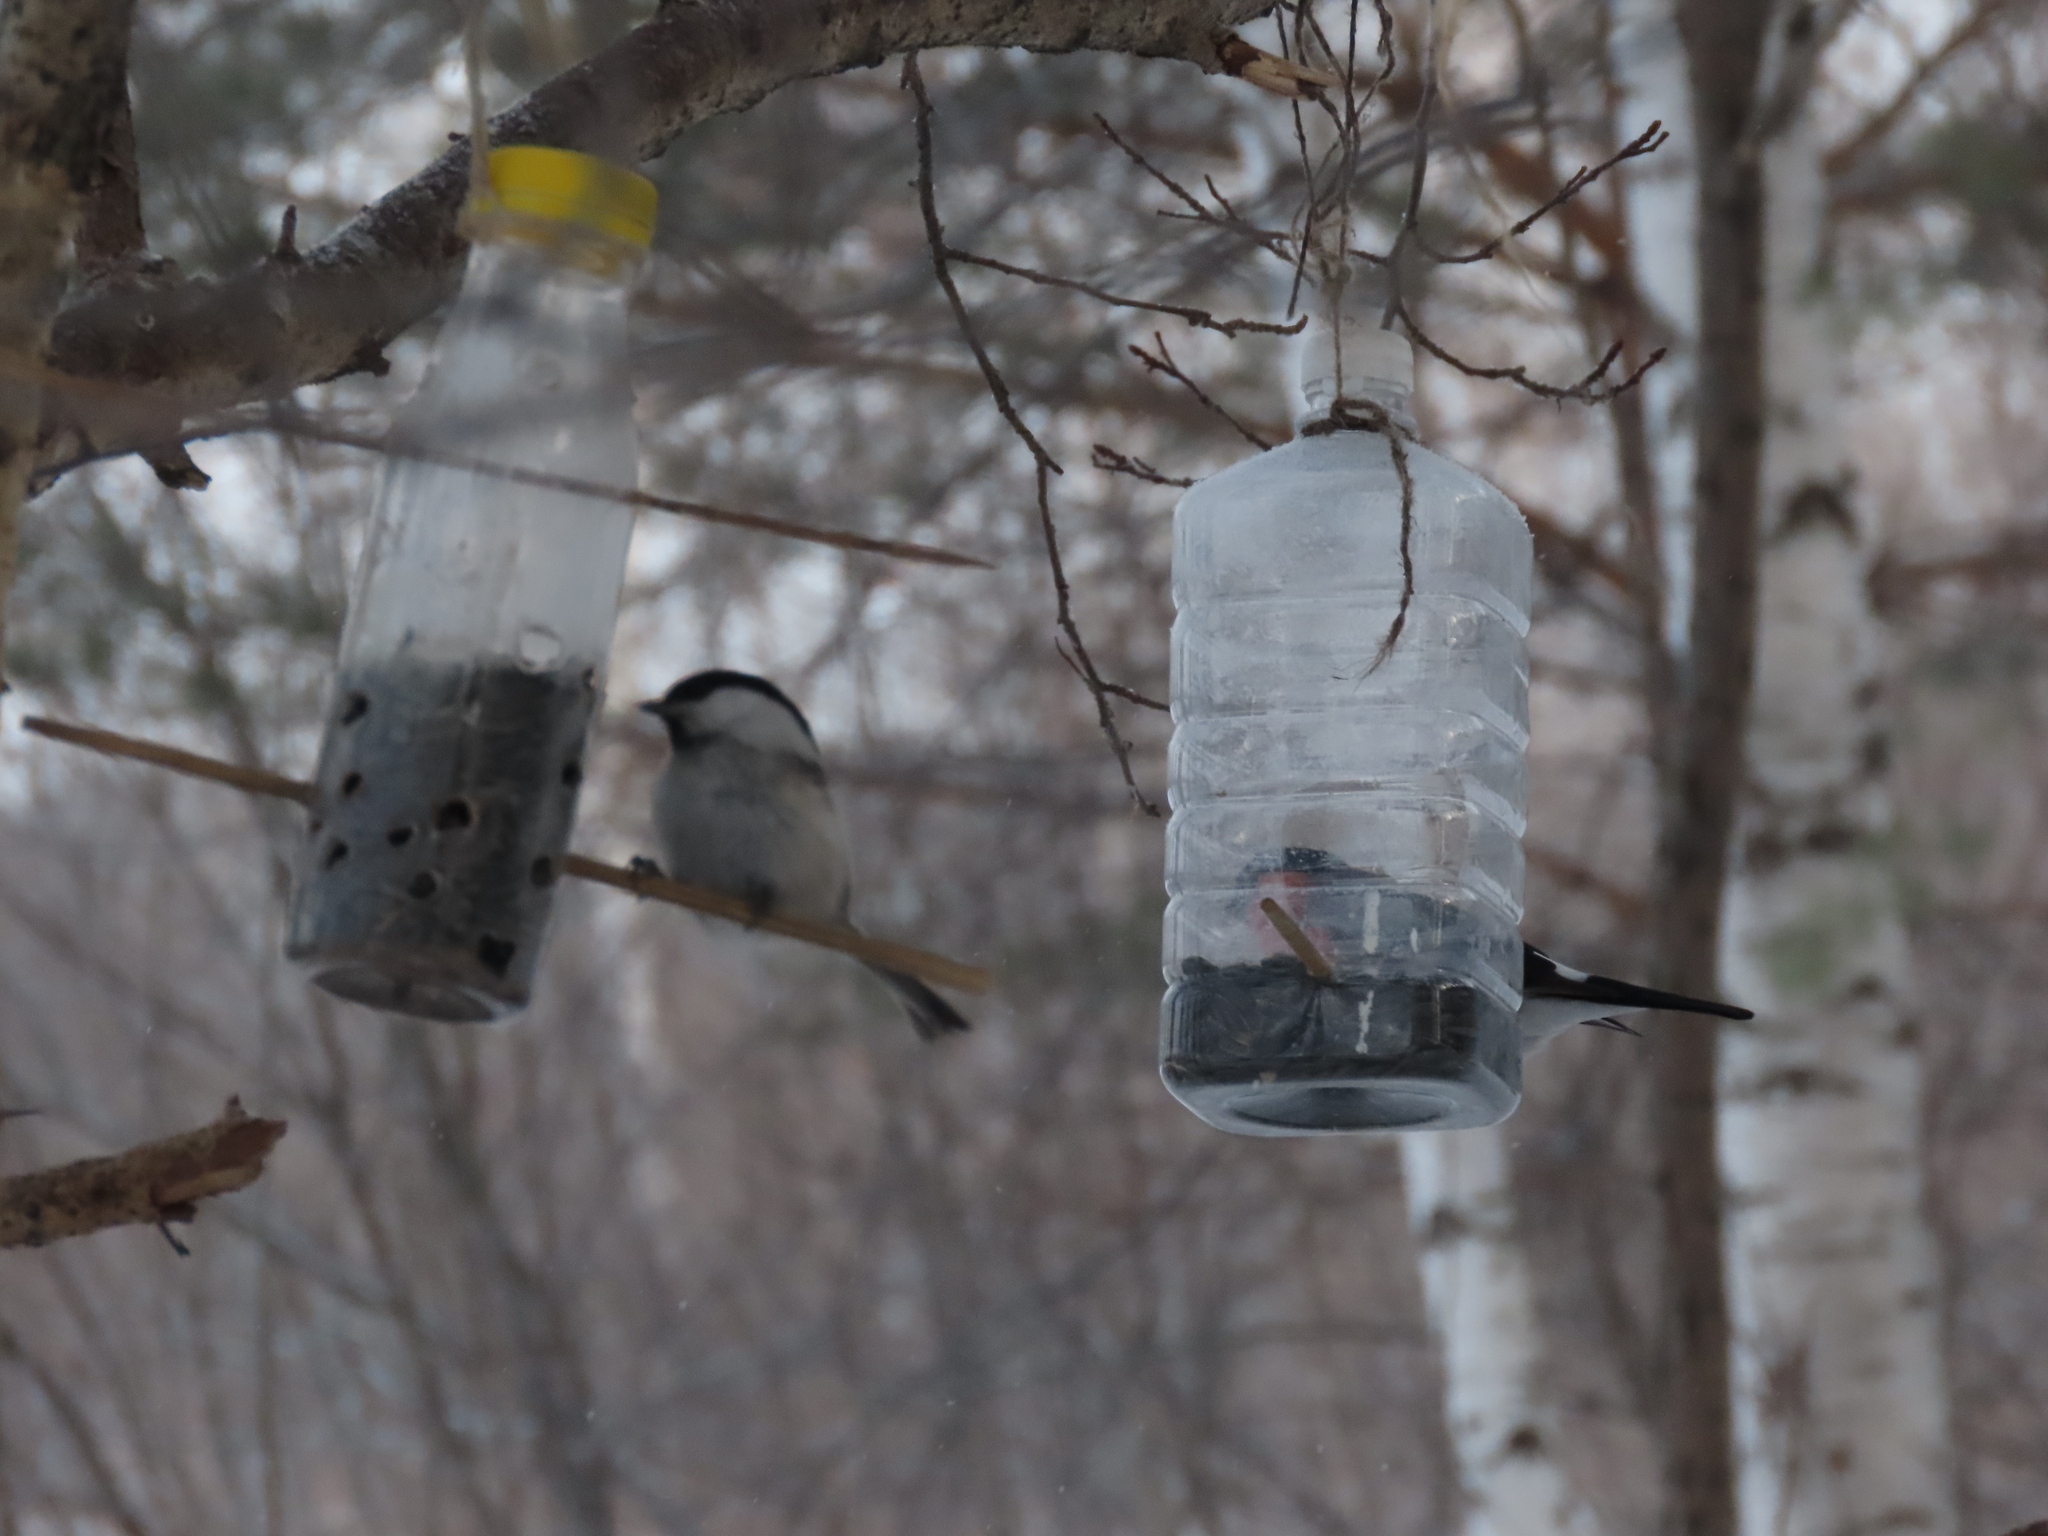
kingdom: Animalia
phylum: Chordata
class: Aves
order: Passeriformes
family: Paridae
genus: Poecile
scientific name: Poecile montanus
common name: Willow tit
